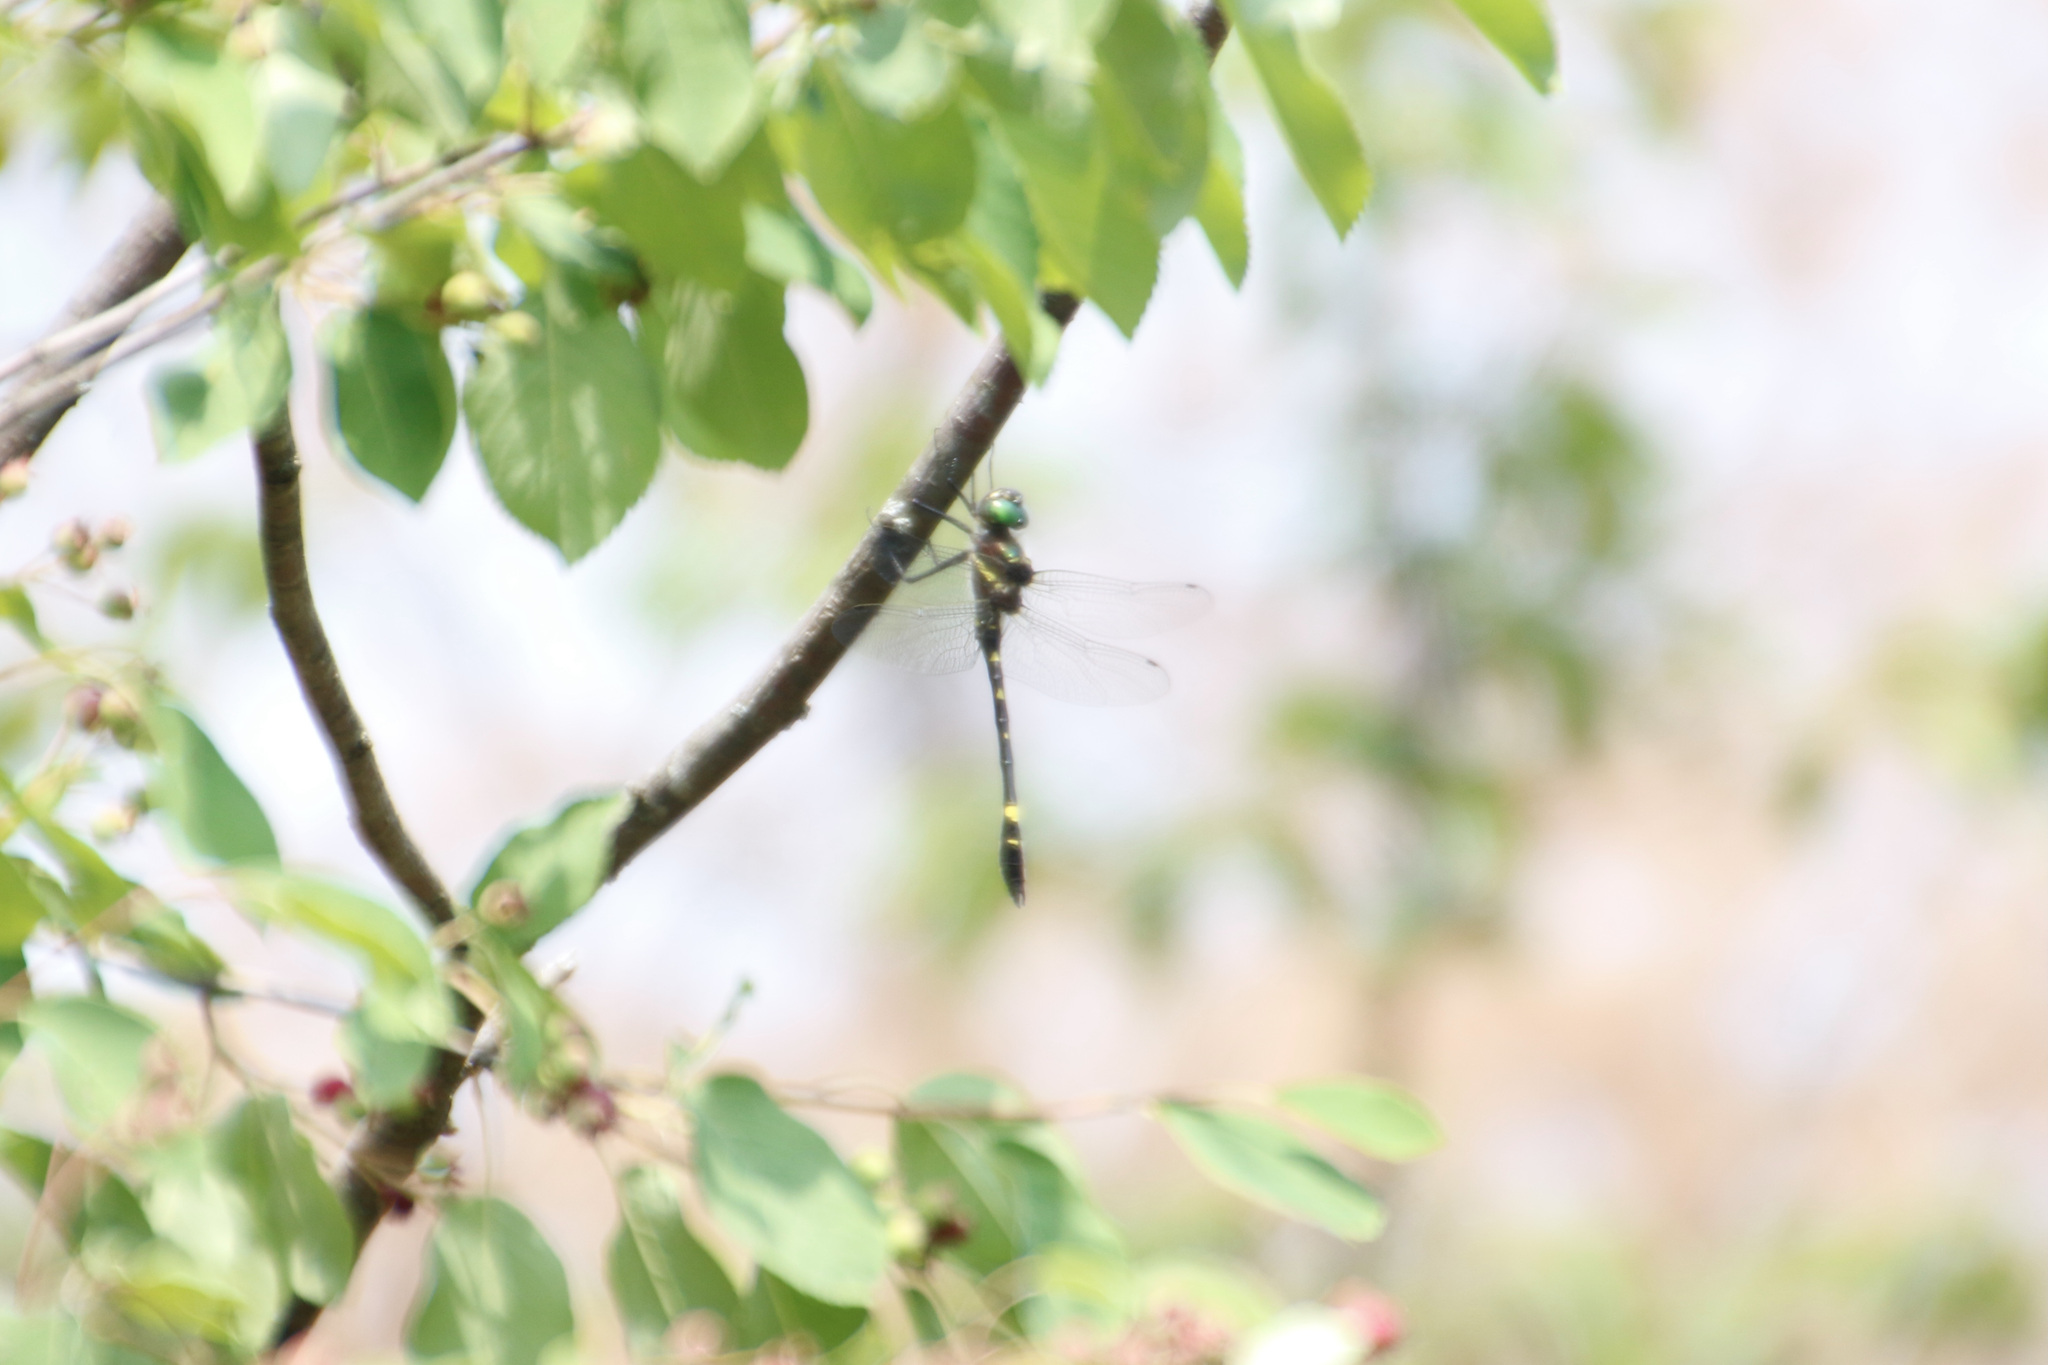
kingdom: Animalia
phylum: Arthropoda
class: Insecta
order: Odonata
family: Macromiidae
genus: Macromia
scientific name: Macromia illinoiensis
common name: Swift river cruiser
